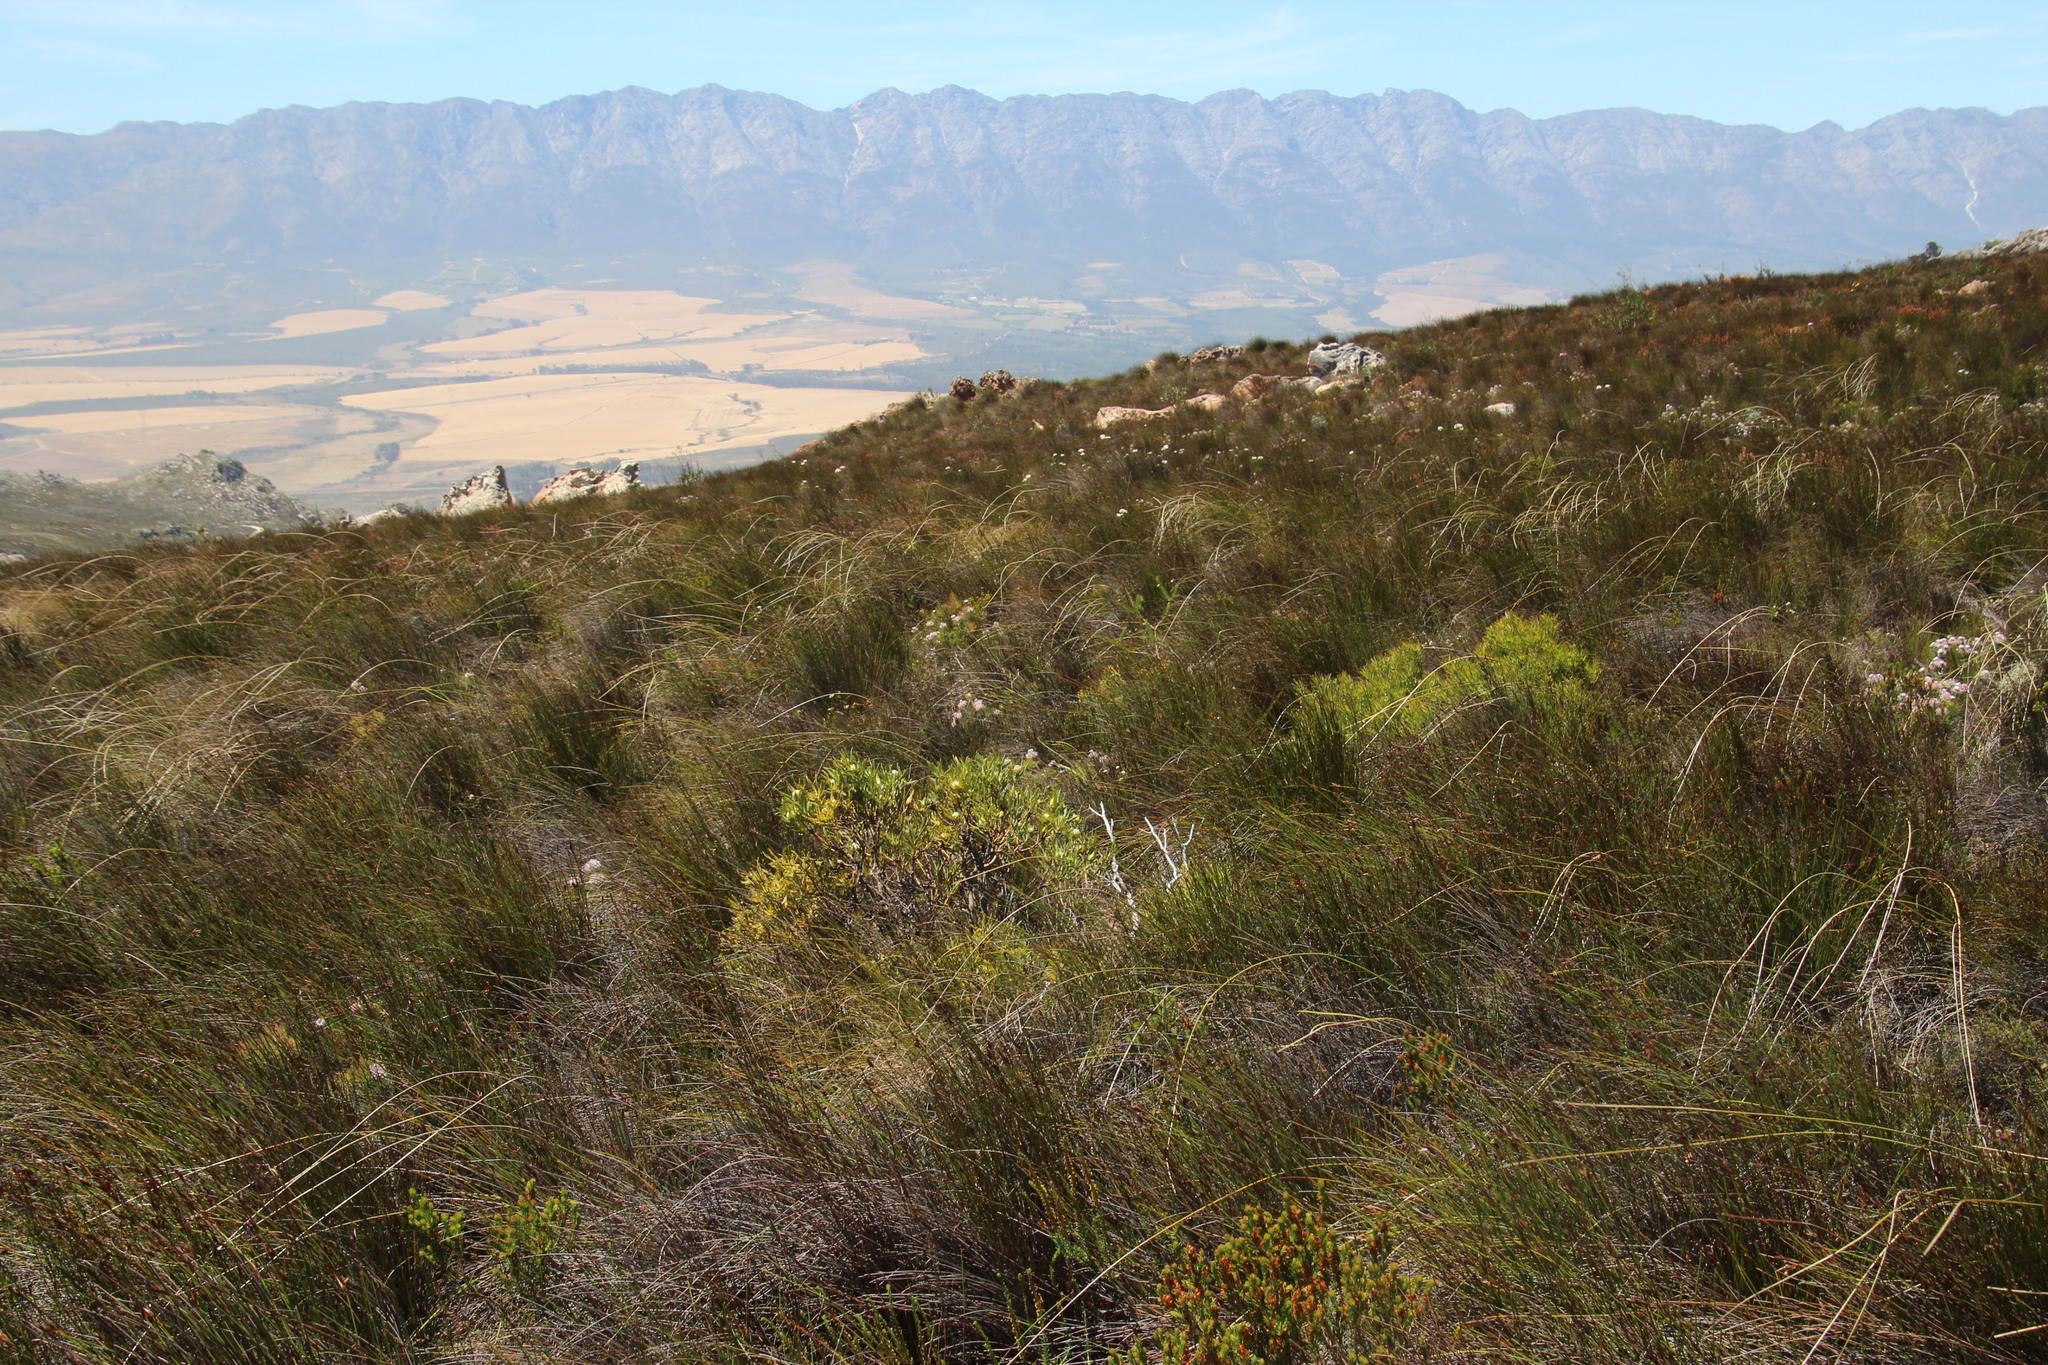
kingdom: Plantae
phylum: Tracheophyta
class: Magnoliopsida
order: Proteales
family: Proteaceae
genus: Leucadendron
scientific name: Leucadendron salignum
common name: Common sunshine conebush
